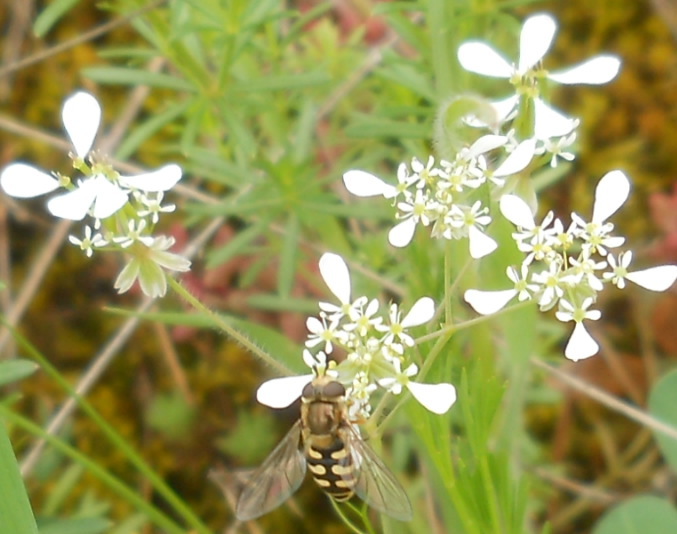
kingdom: Animalia
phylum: Arthropoda
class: Insecta
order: Diptera
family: Syrphidae
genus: Eupeodes
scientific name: Eupeodes corollae
